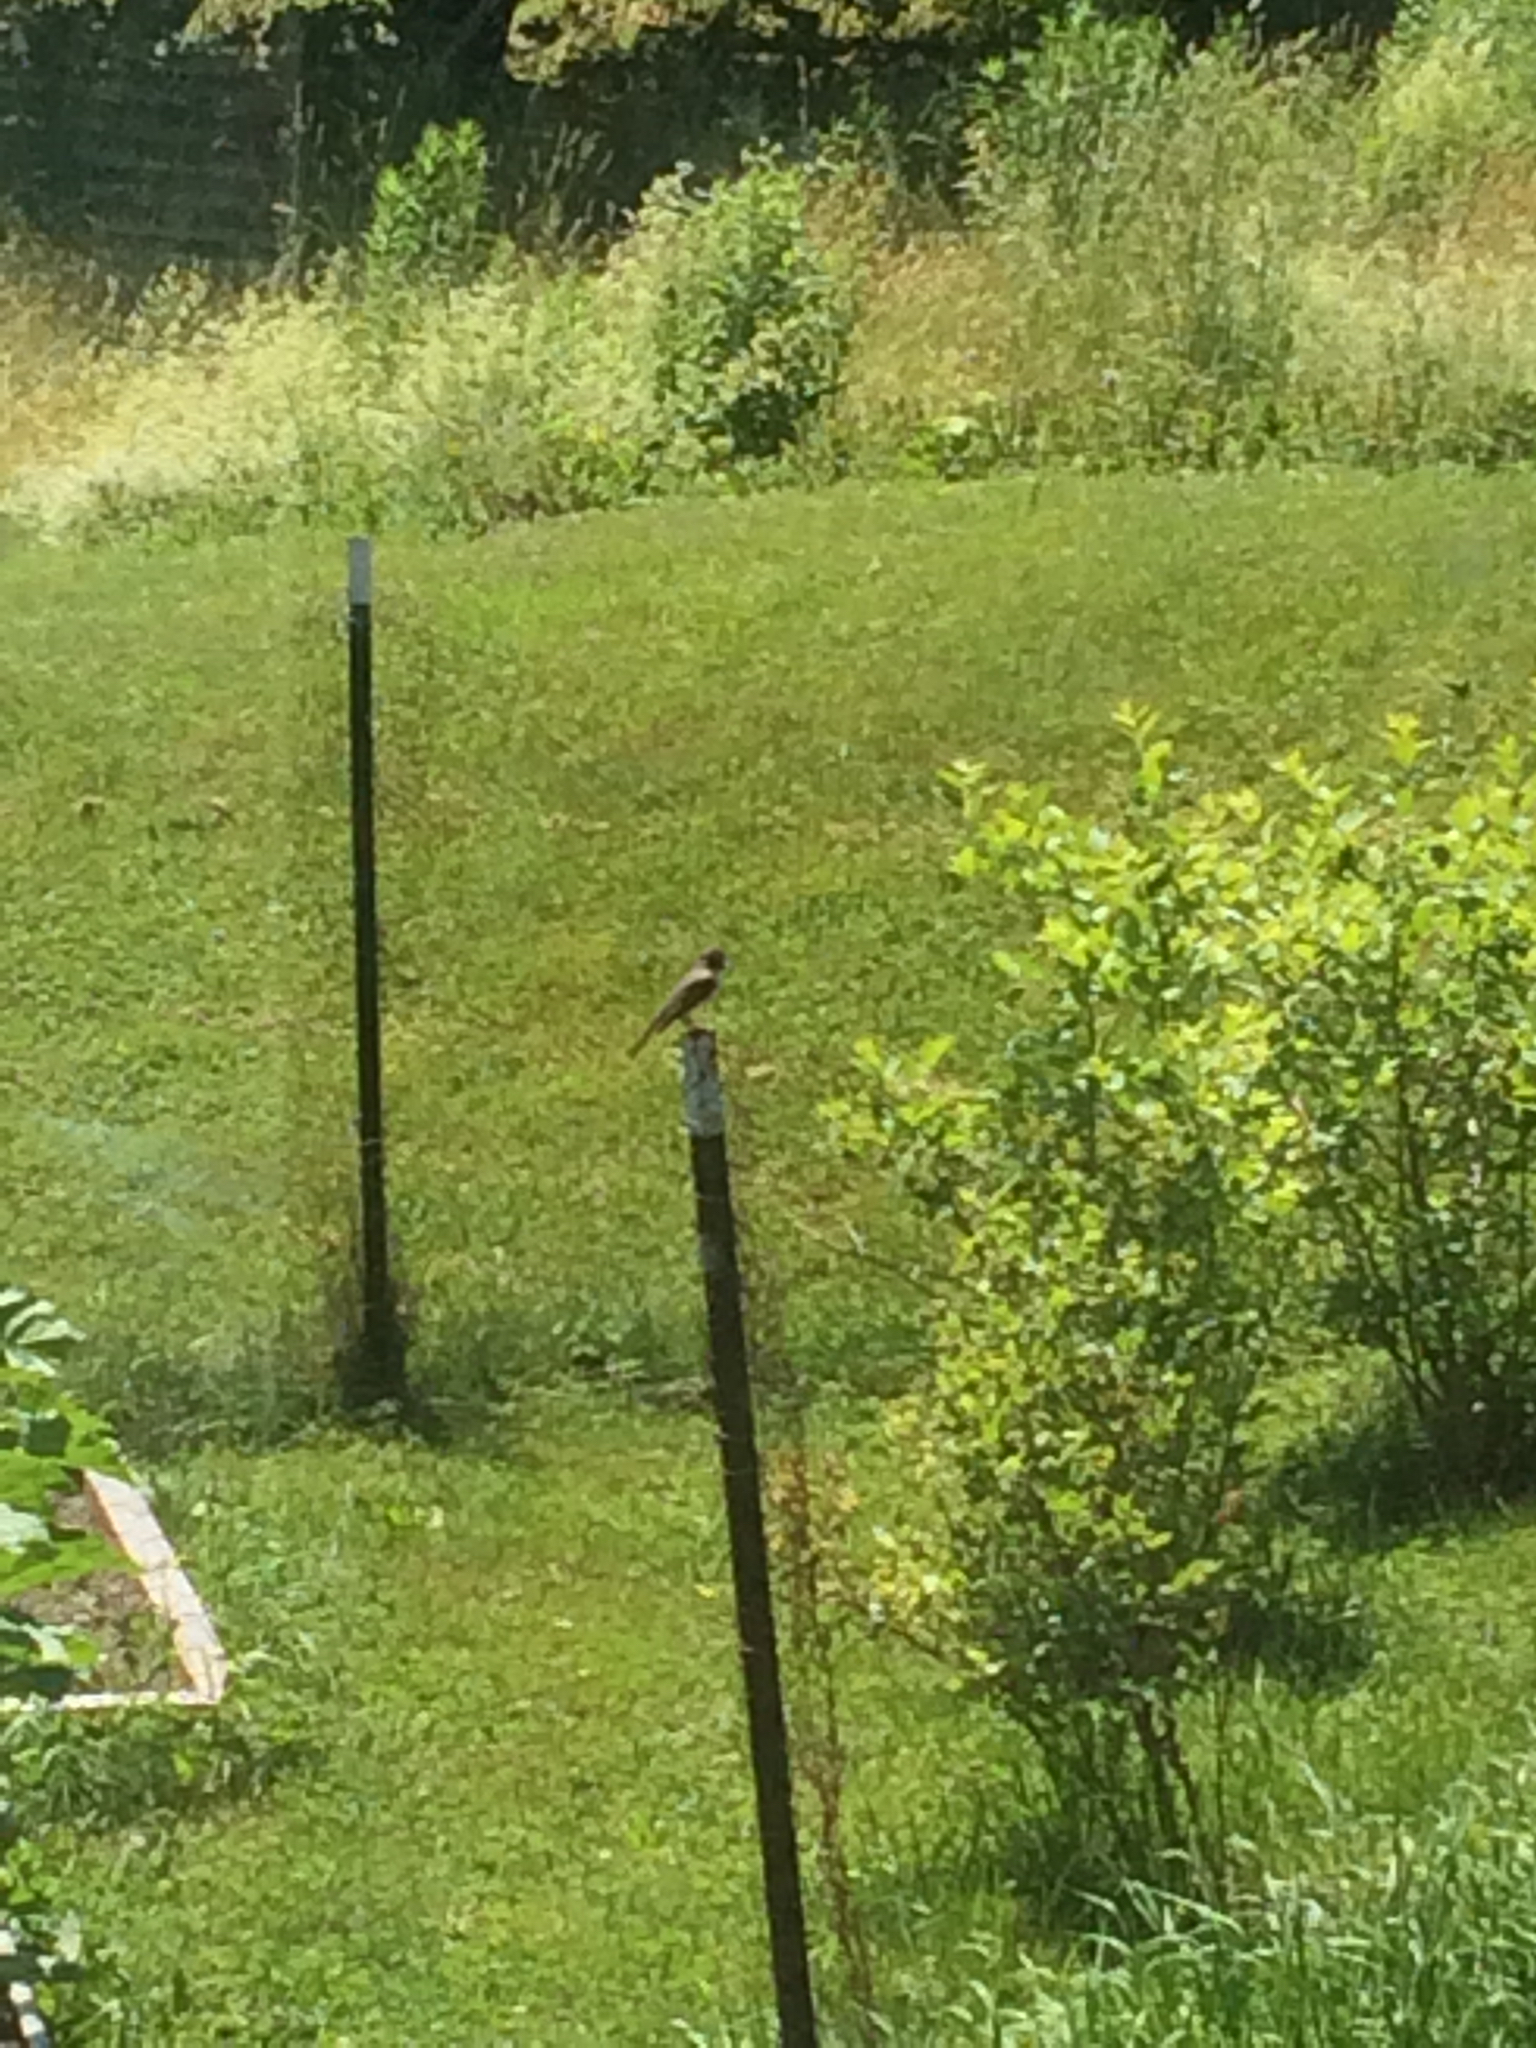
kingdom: Animalia
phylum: Chordata
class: Aves
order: Passeriformes
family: Tyrannidae
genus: Sayornis
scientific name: Sayornis phoebe
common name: Eastern phoebe
